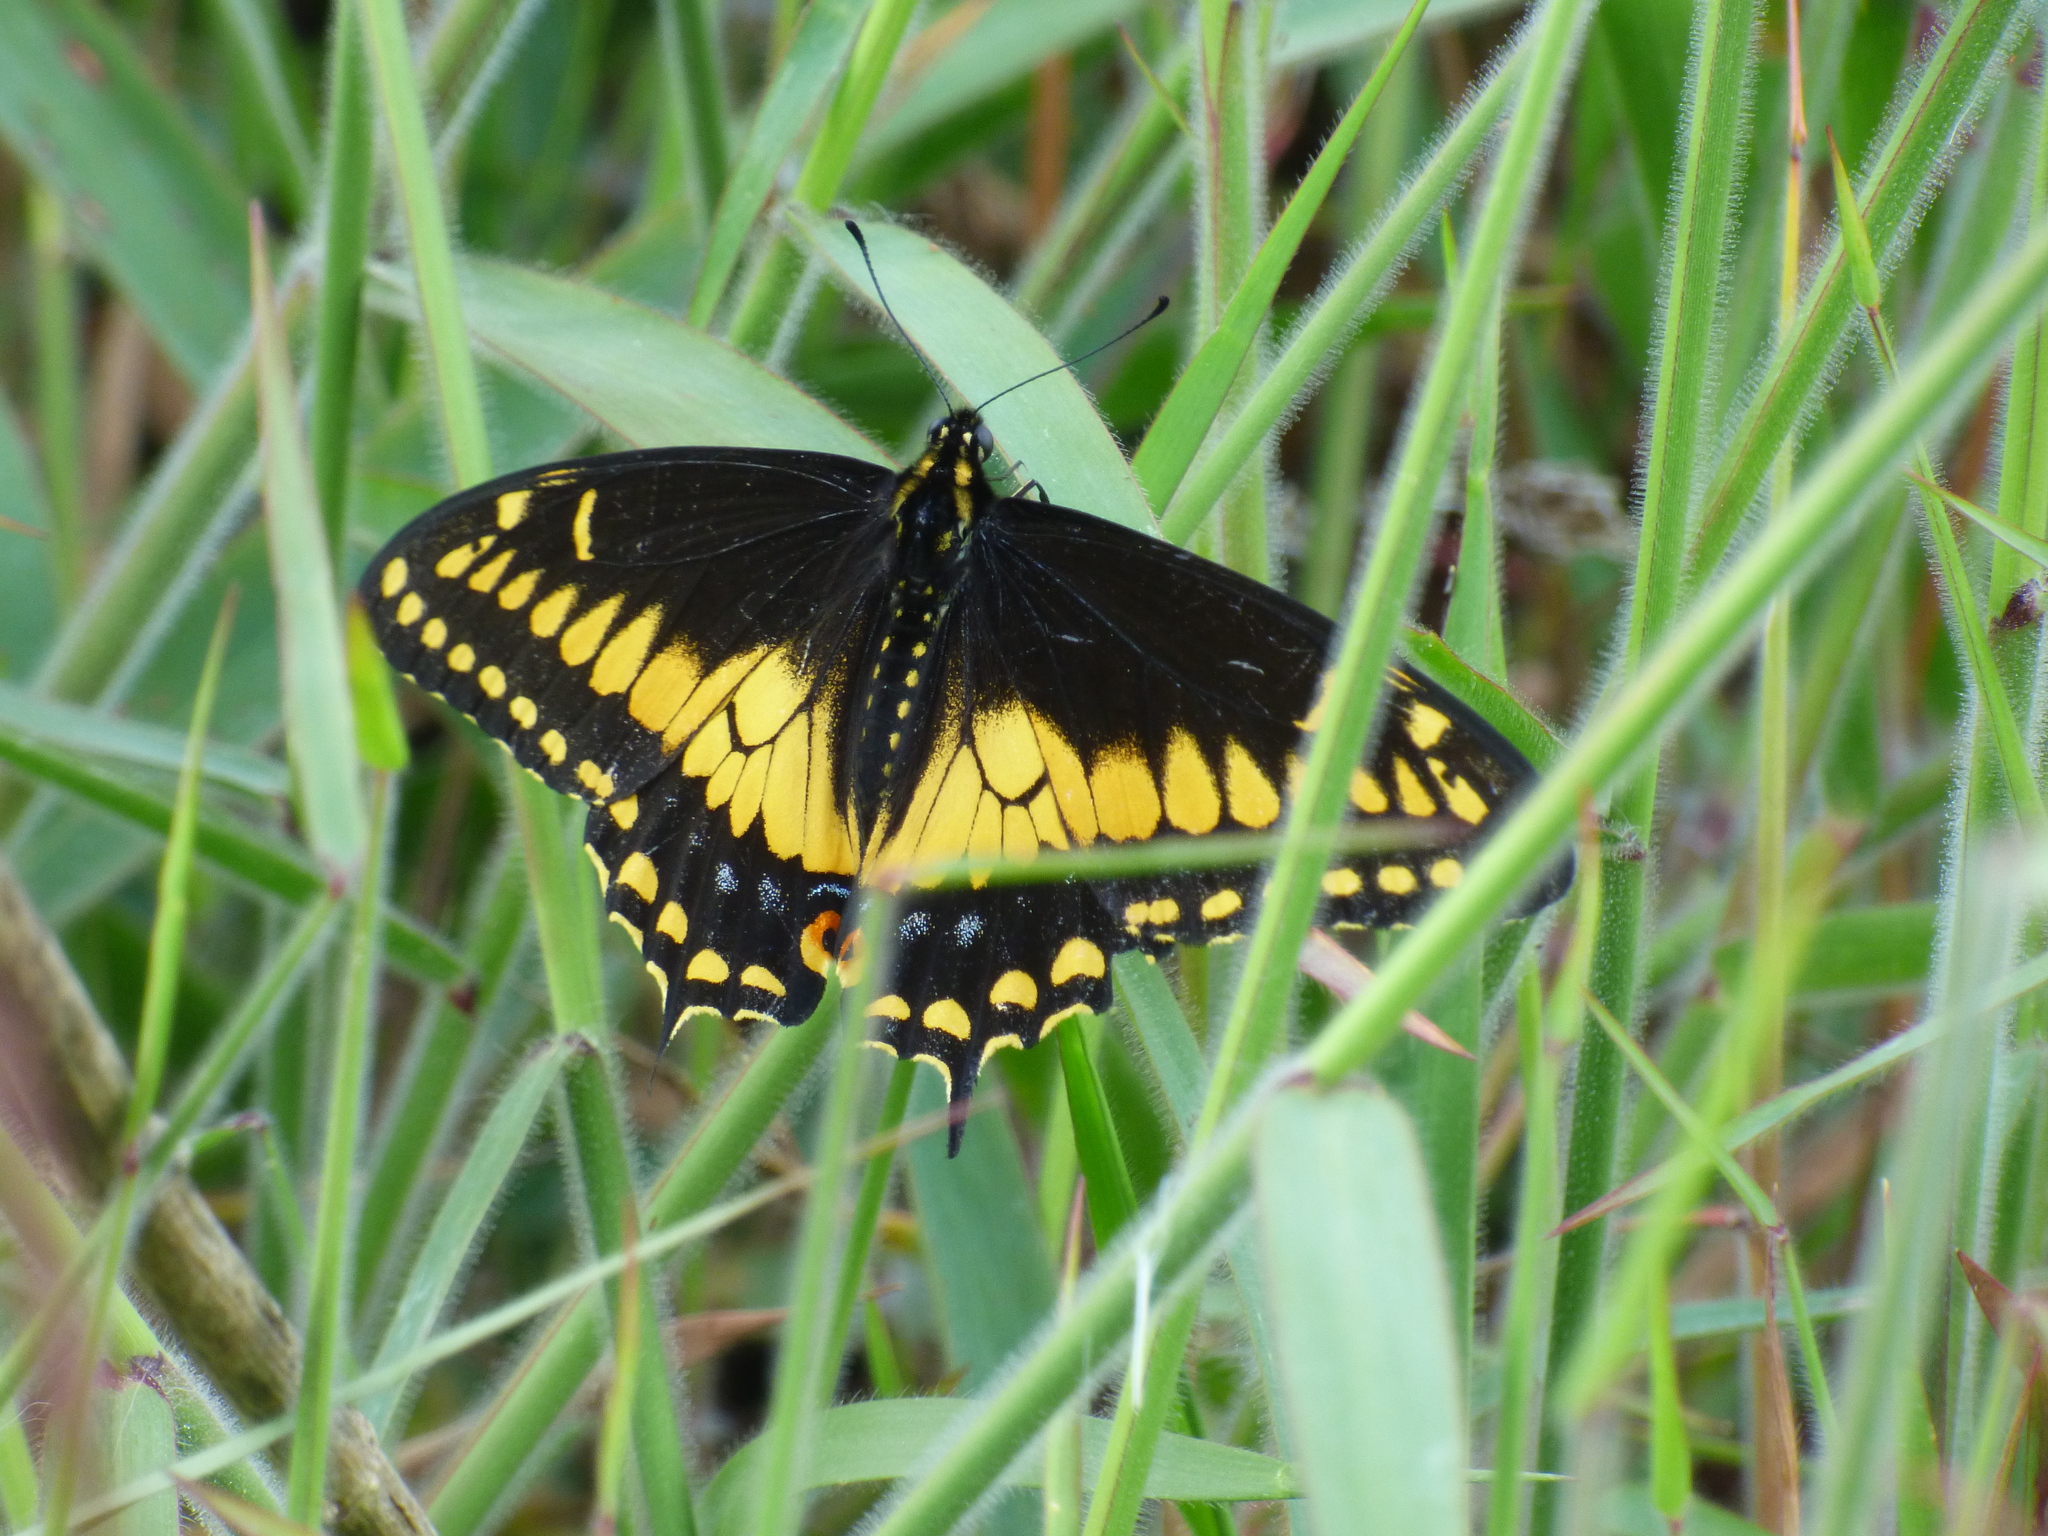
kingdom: Animalia
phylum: Arthropoda
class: Insecta
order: Lepidoptera
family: Papilionidae
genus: Papilio
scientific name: Papilio polyxenes
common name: Black swallowtail
